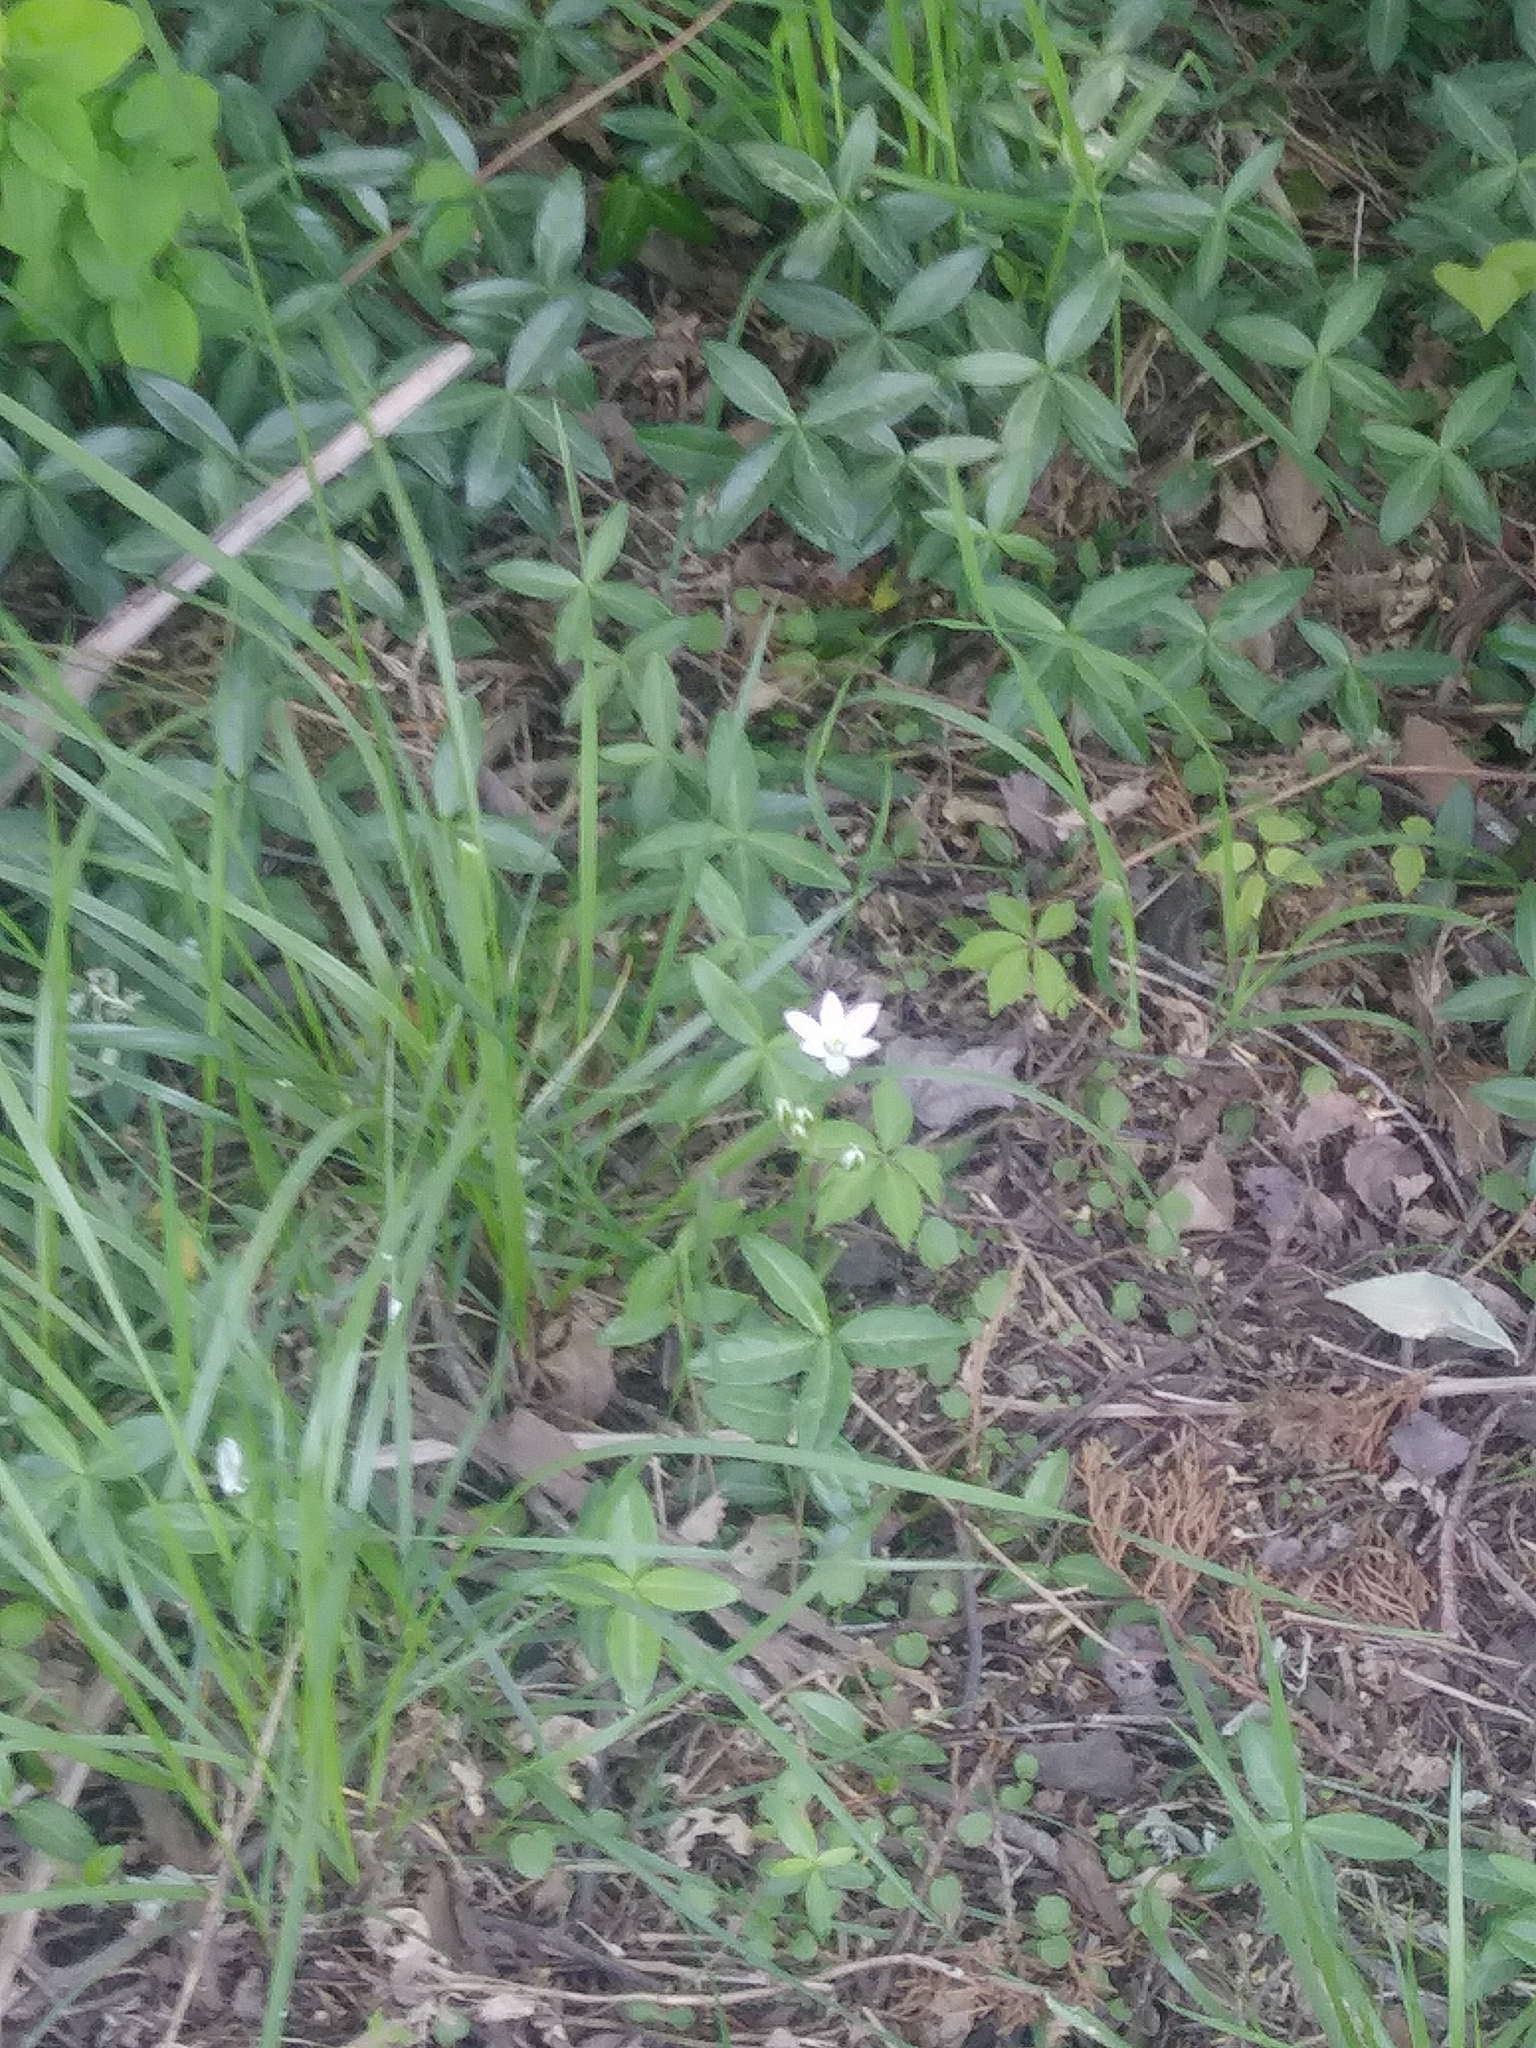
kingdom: Plantae
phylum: Tracheophyta
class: Liliopsida
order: Asparagales
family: Asparagaceae
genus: Ornithogalum
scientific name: Ornithogalum umbellatum
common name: Garden star-of-bethlehem
